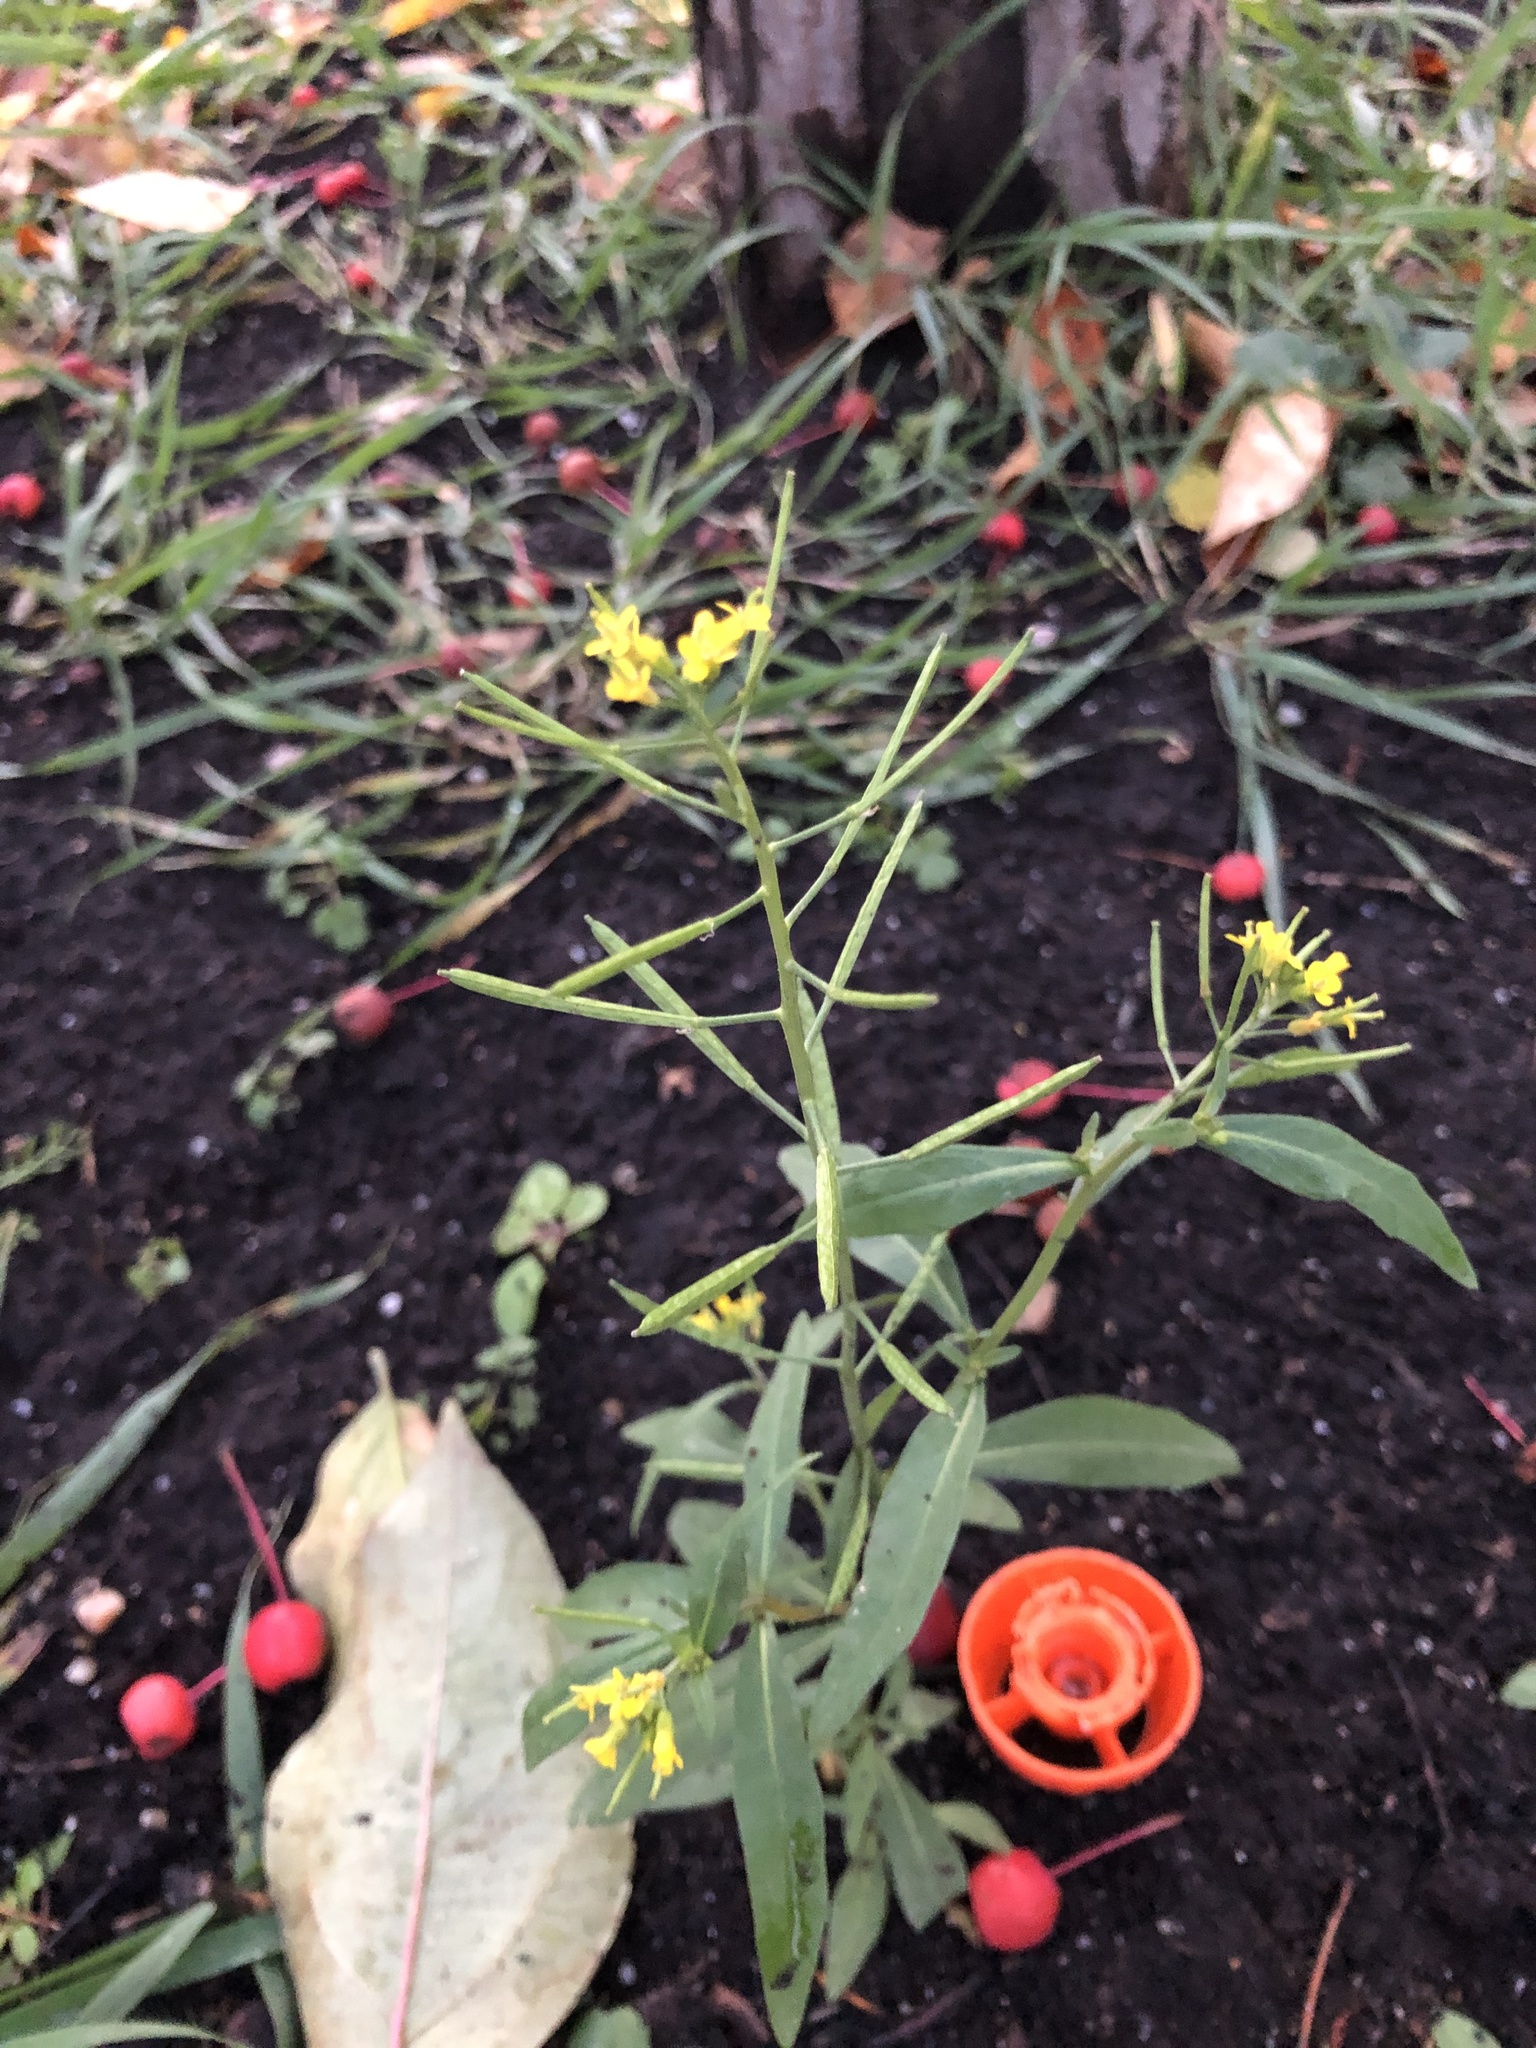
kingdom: Plantae
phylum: Tracheophyta
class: Magnoliopsida
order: Brassicales
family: Brassicaceae
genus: Erysimum
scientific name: Erysimum cheiranthoides
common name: Treacle mustard
